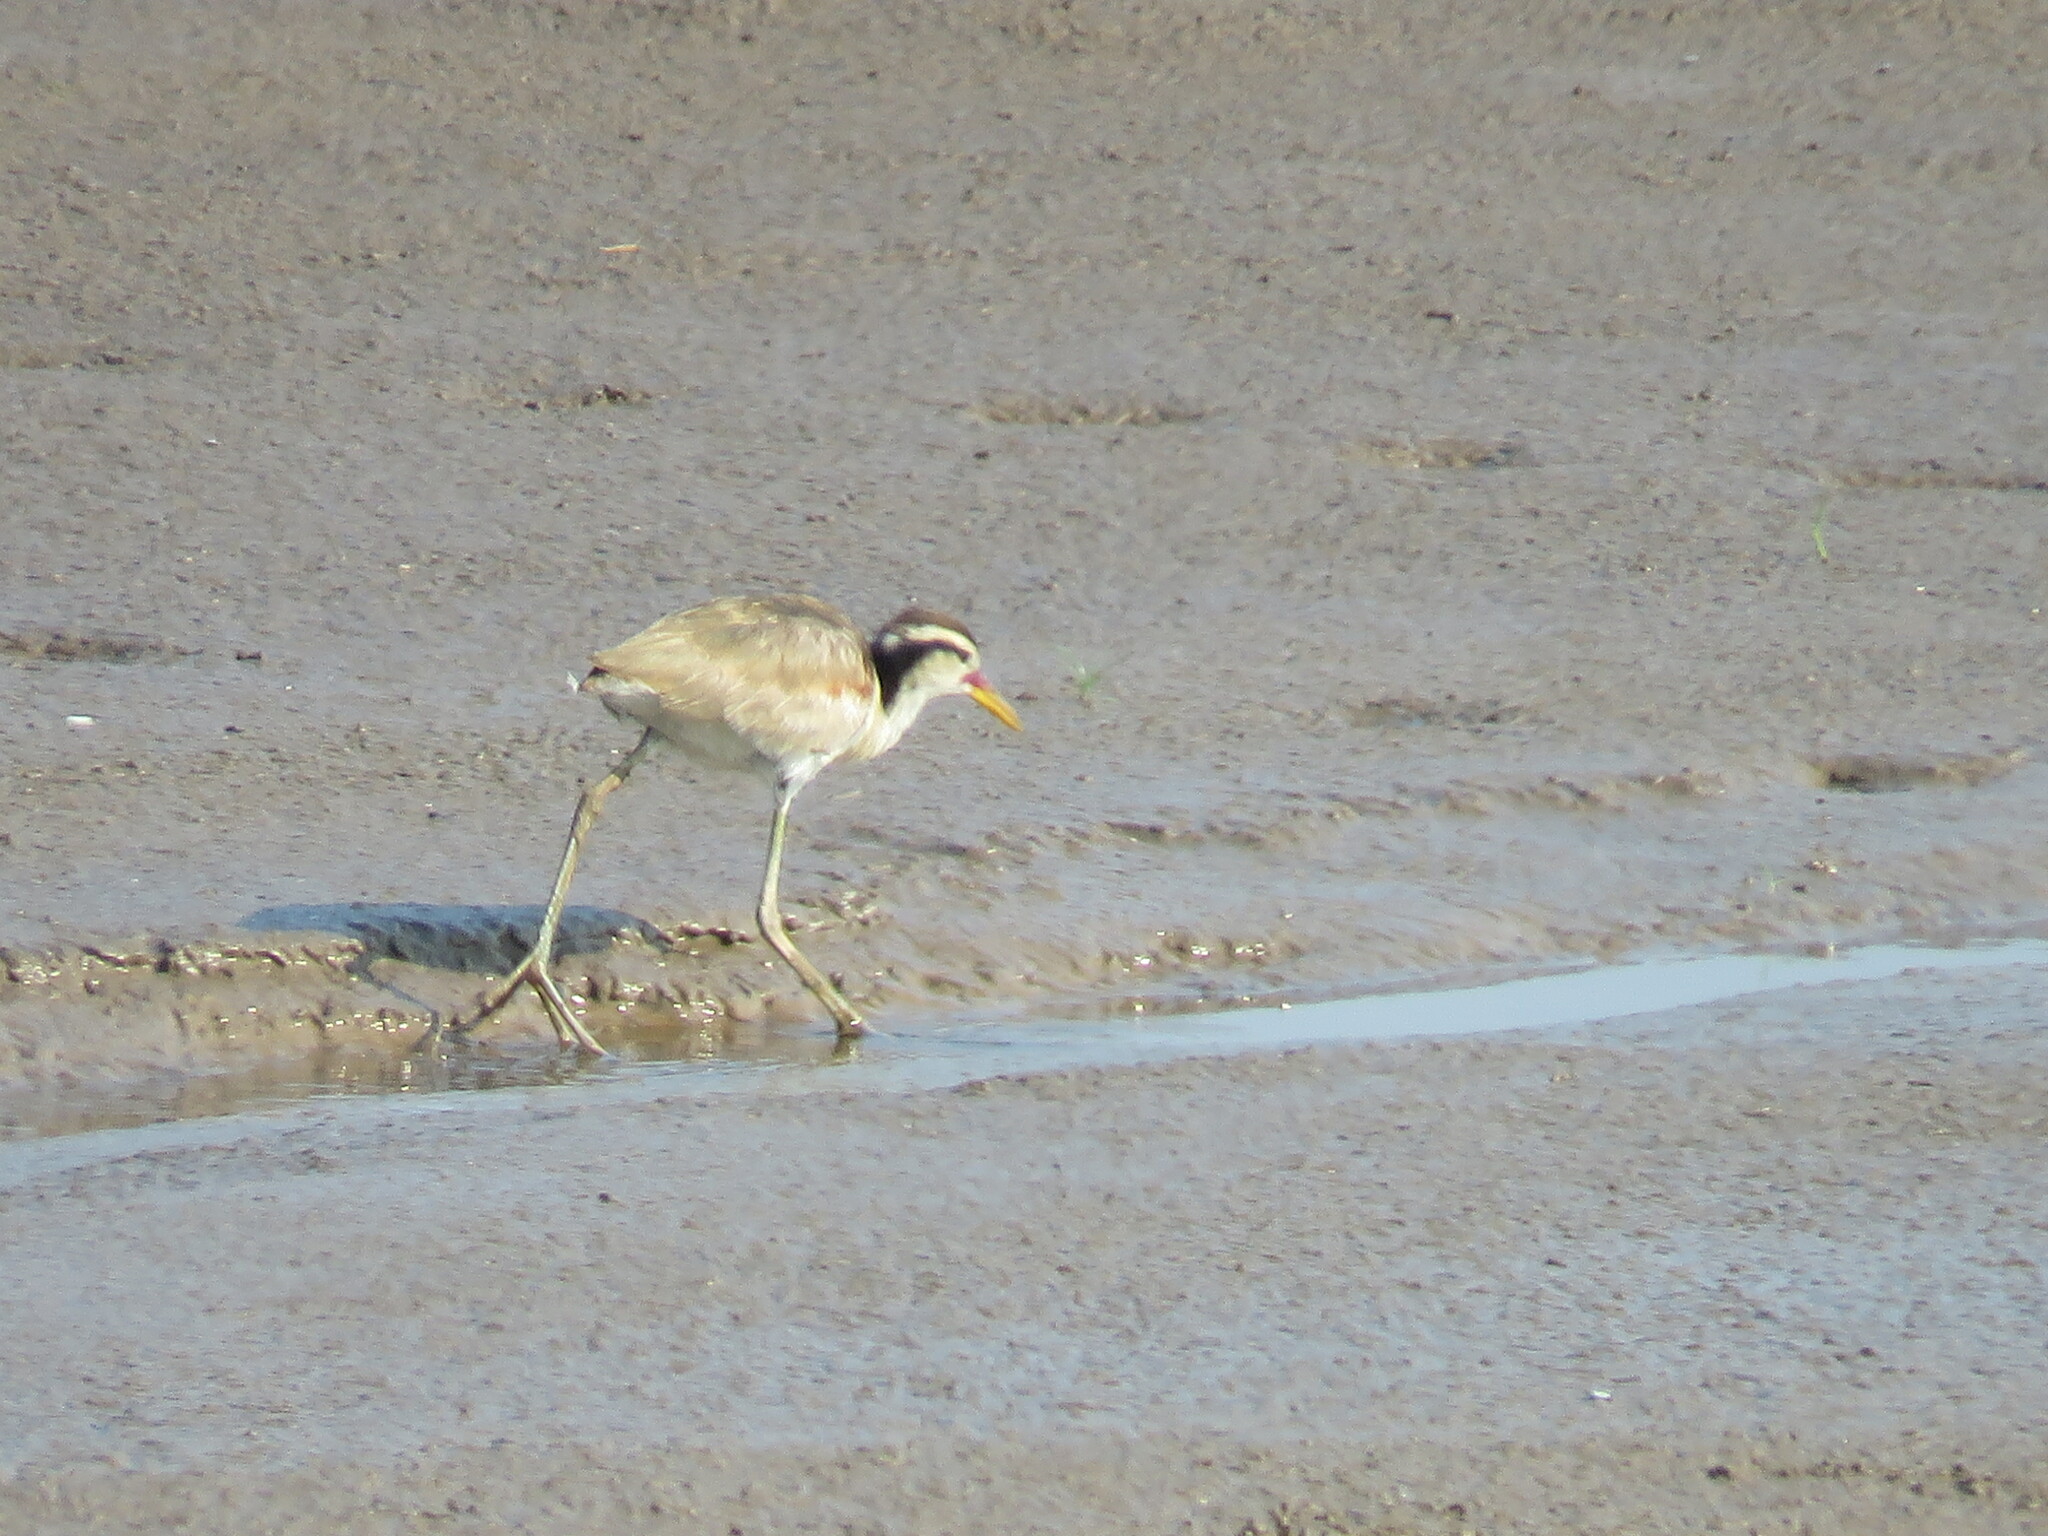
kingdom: Animalia
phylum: Chordata
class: Aves
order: Charadriiformes
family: Jacanidae
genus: Jacana
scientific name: Jacana jacana
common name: Wattled jacana
